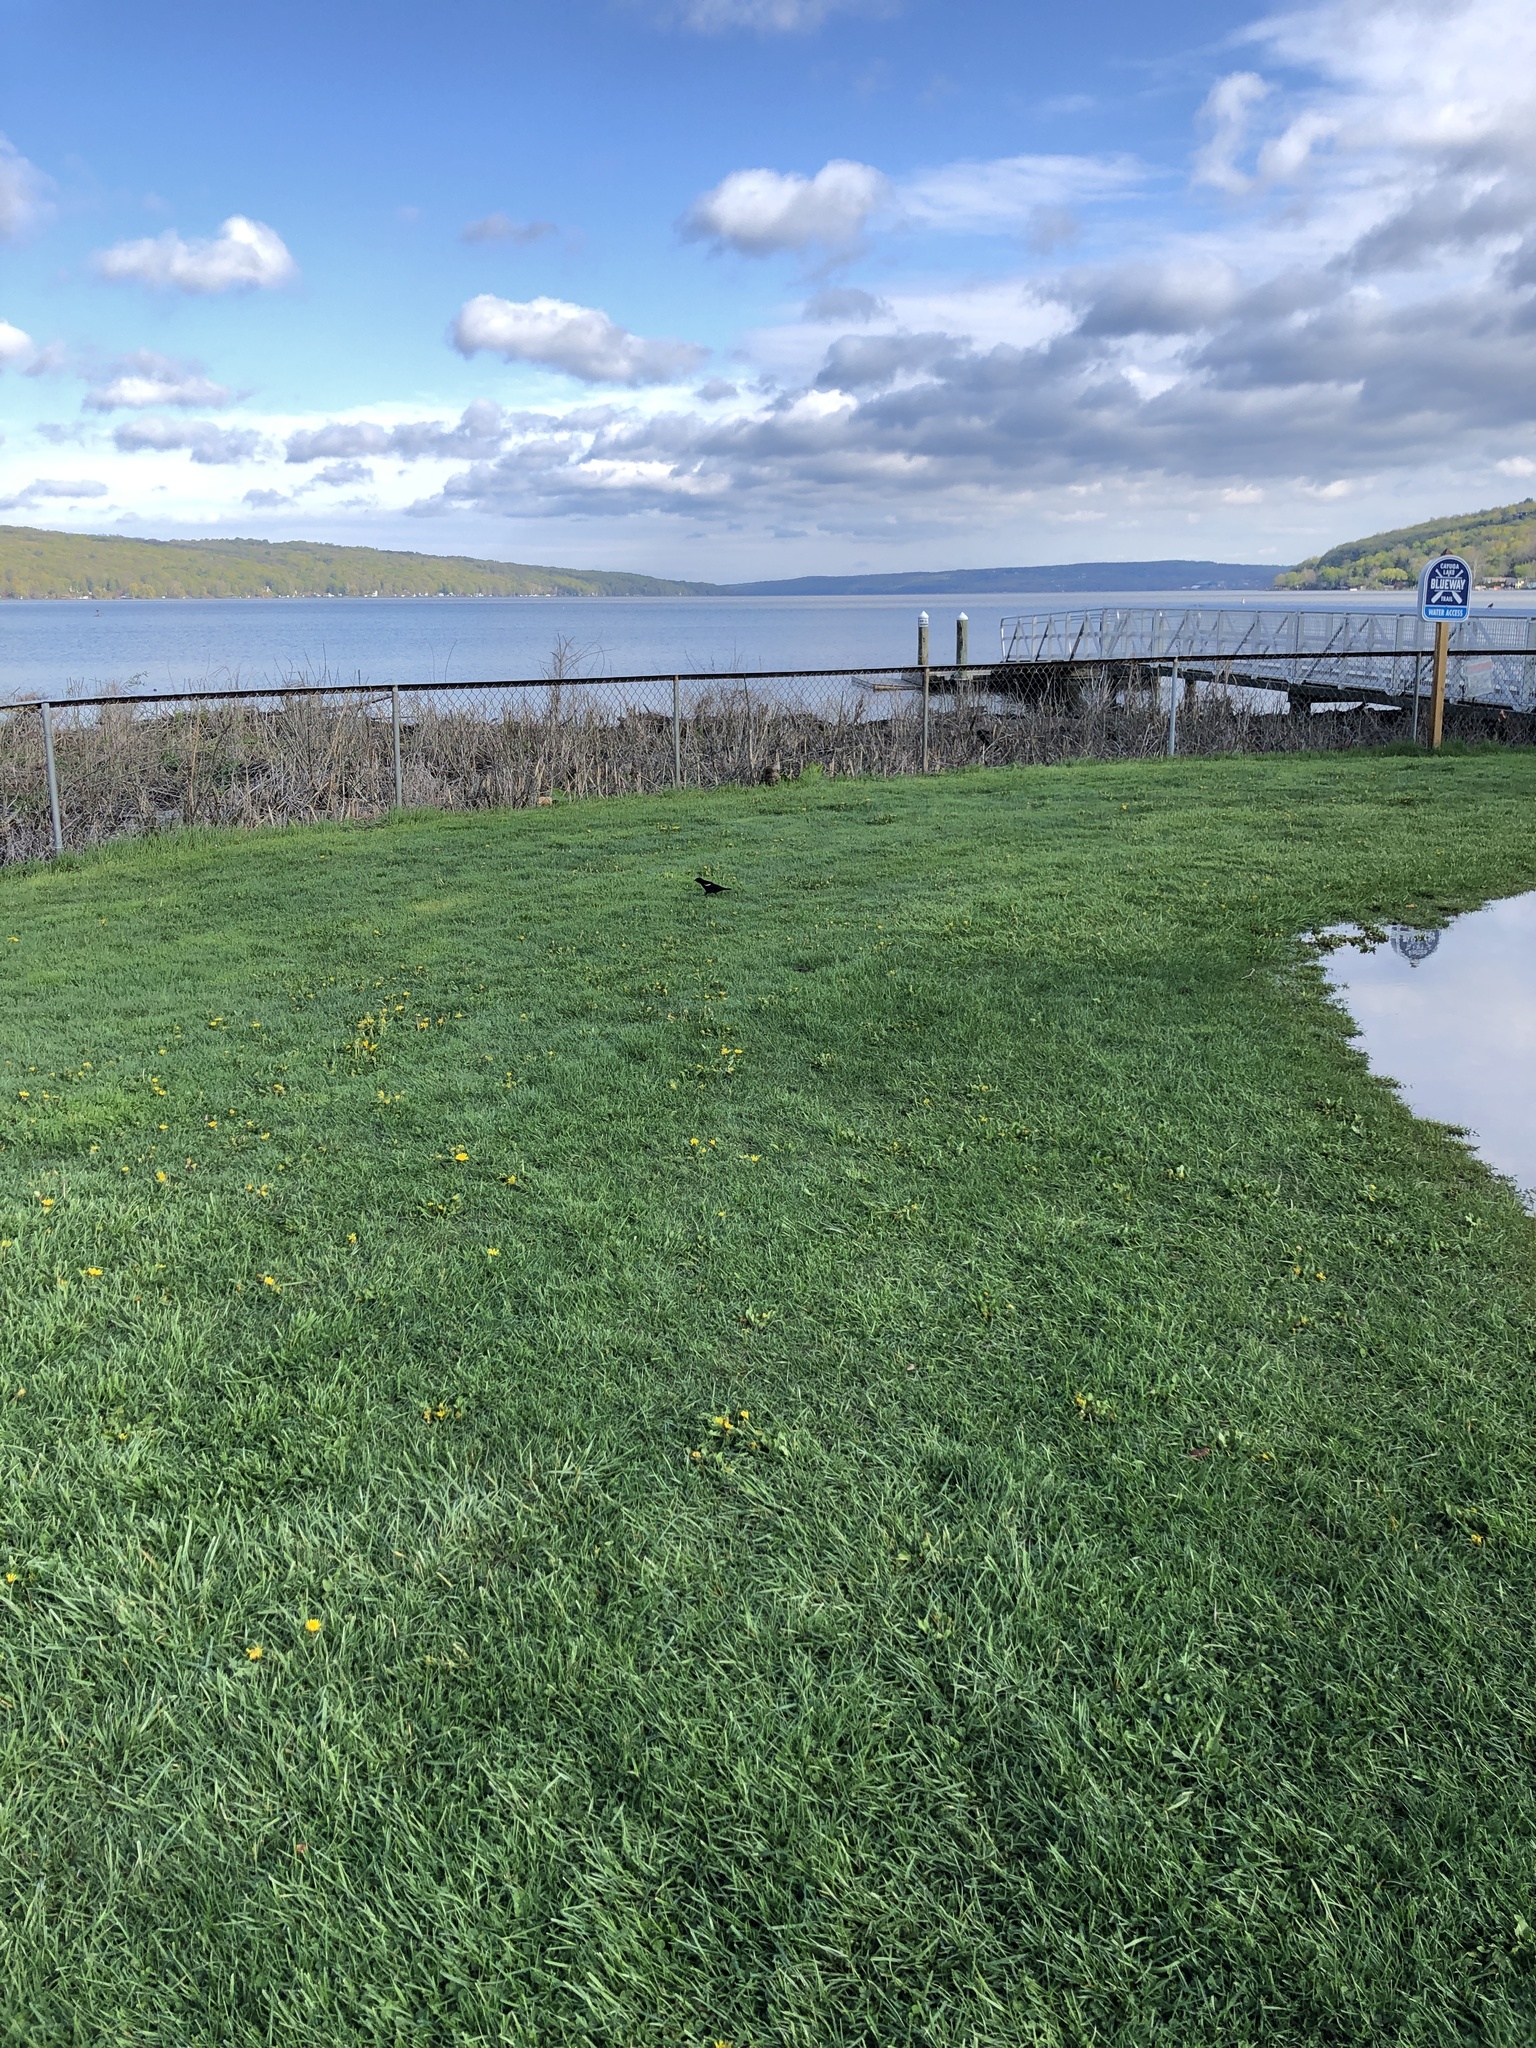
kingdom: Animalia
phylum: Chordata
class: Aves
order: Passeriformes
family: Icteridae
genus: Agelaius
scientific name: Agelaius phoeniceus
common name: Red-winged blackbird
